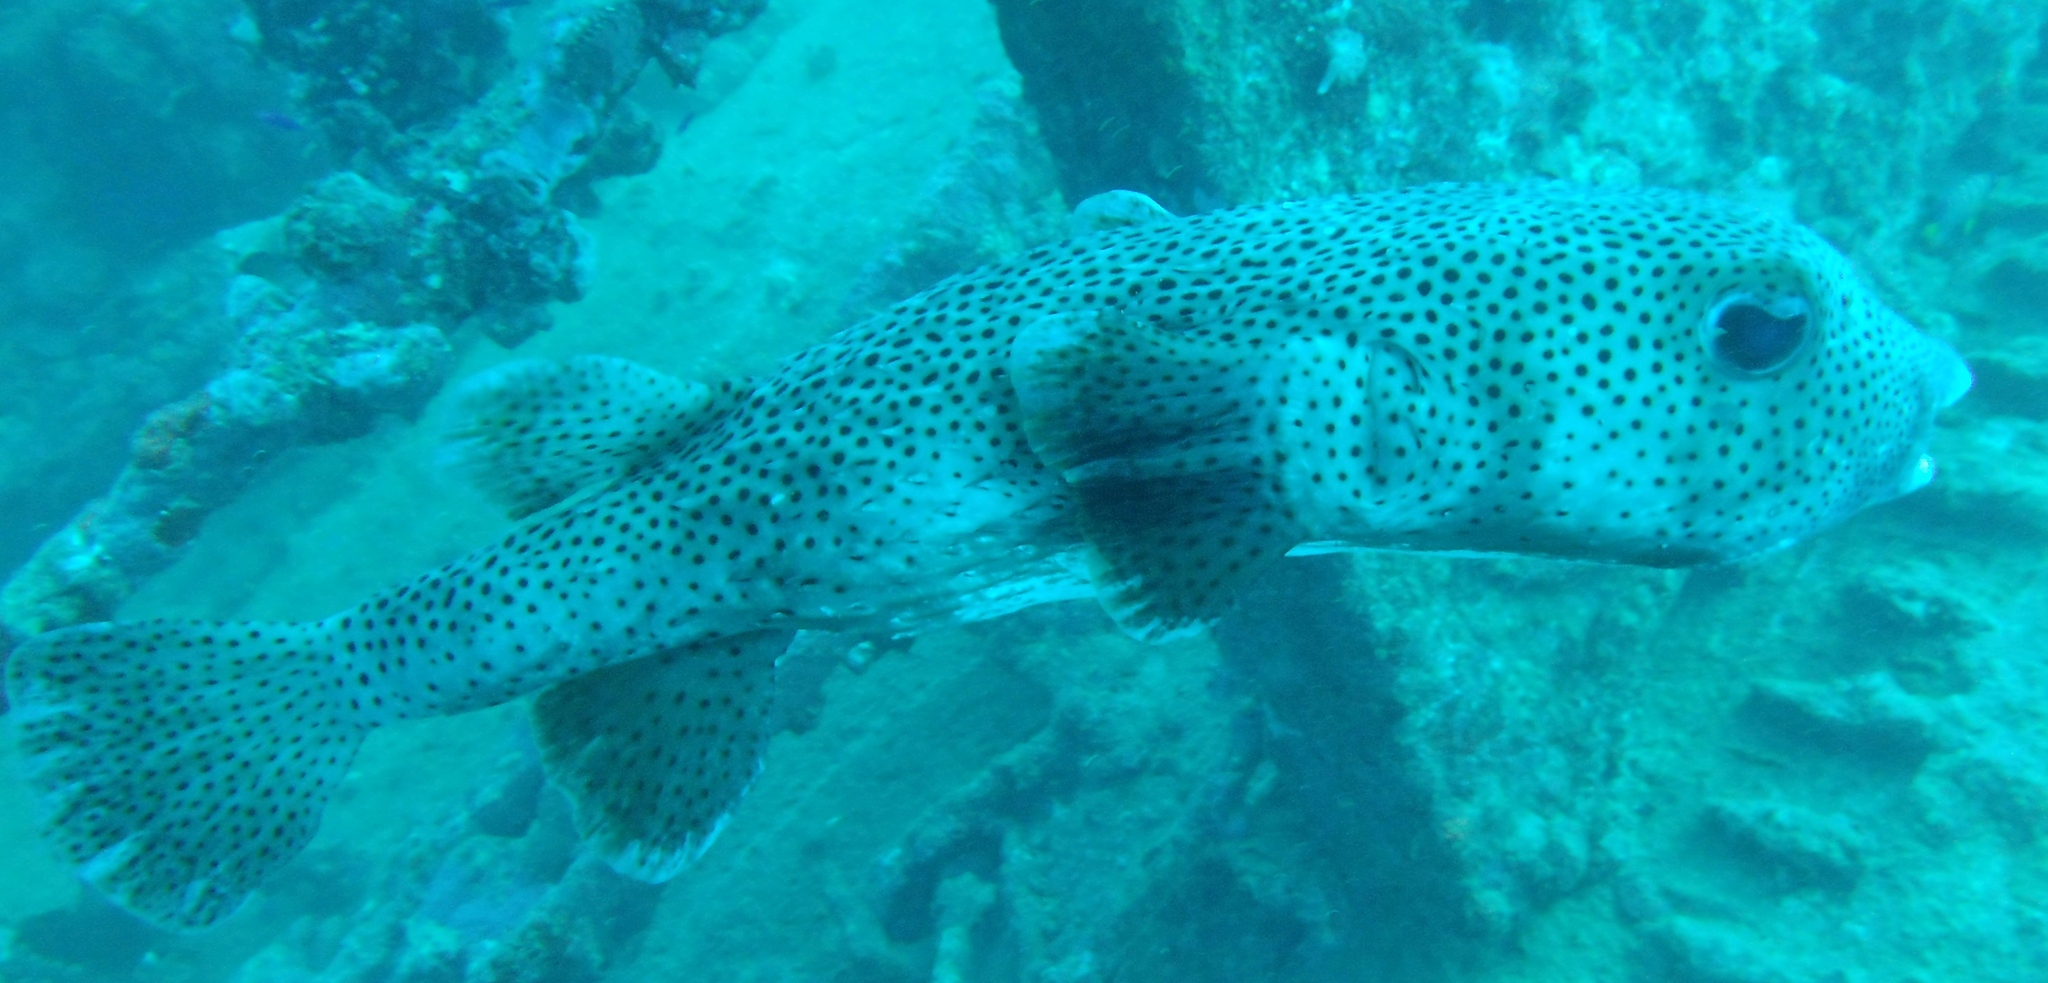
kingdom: Animalia
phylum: Chordata
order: Tetraodontiformes
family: Diodontidae
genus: Diodon
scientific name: Diodon hystrix
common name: Giant porcupinefish
